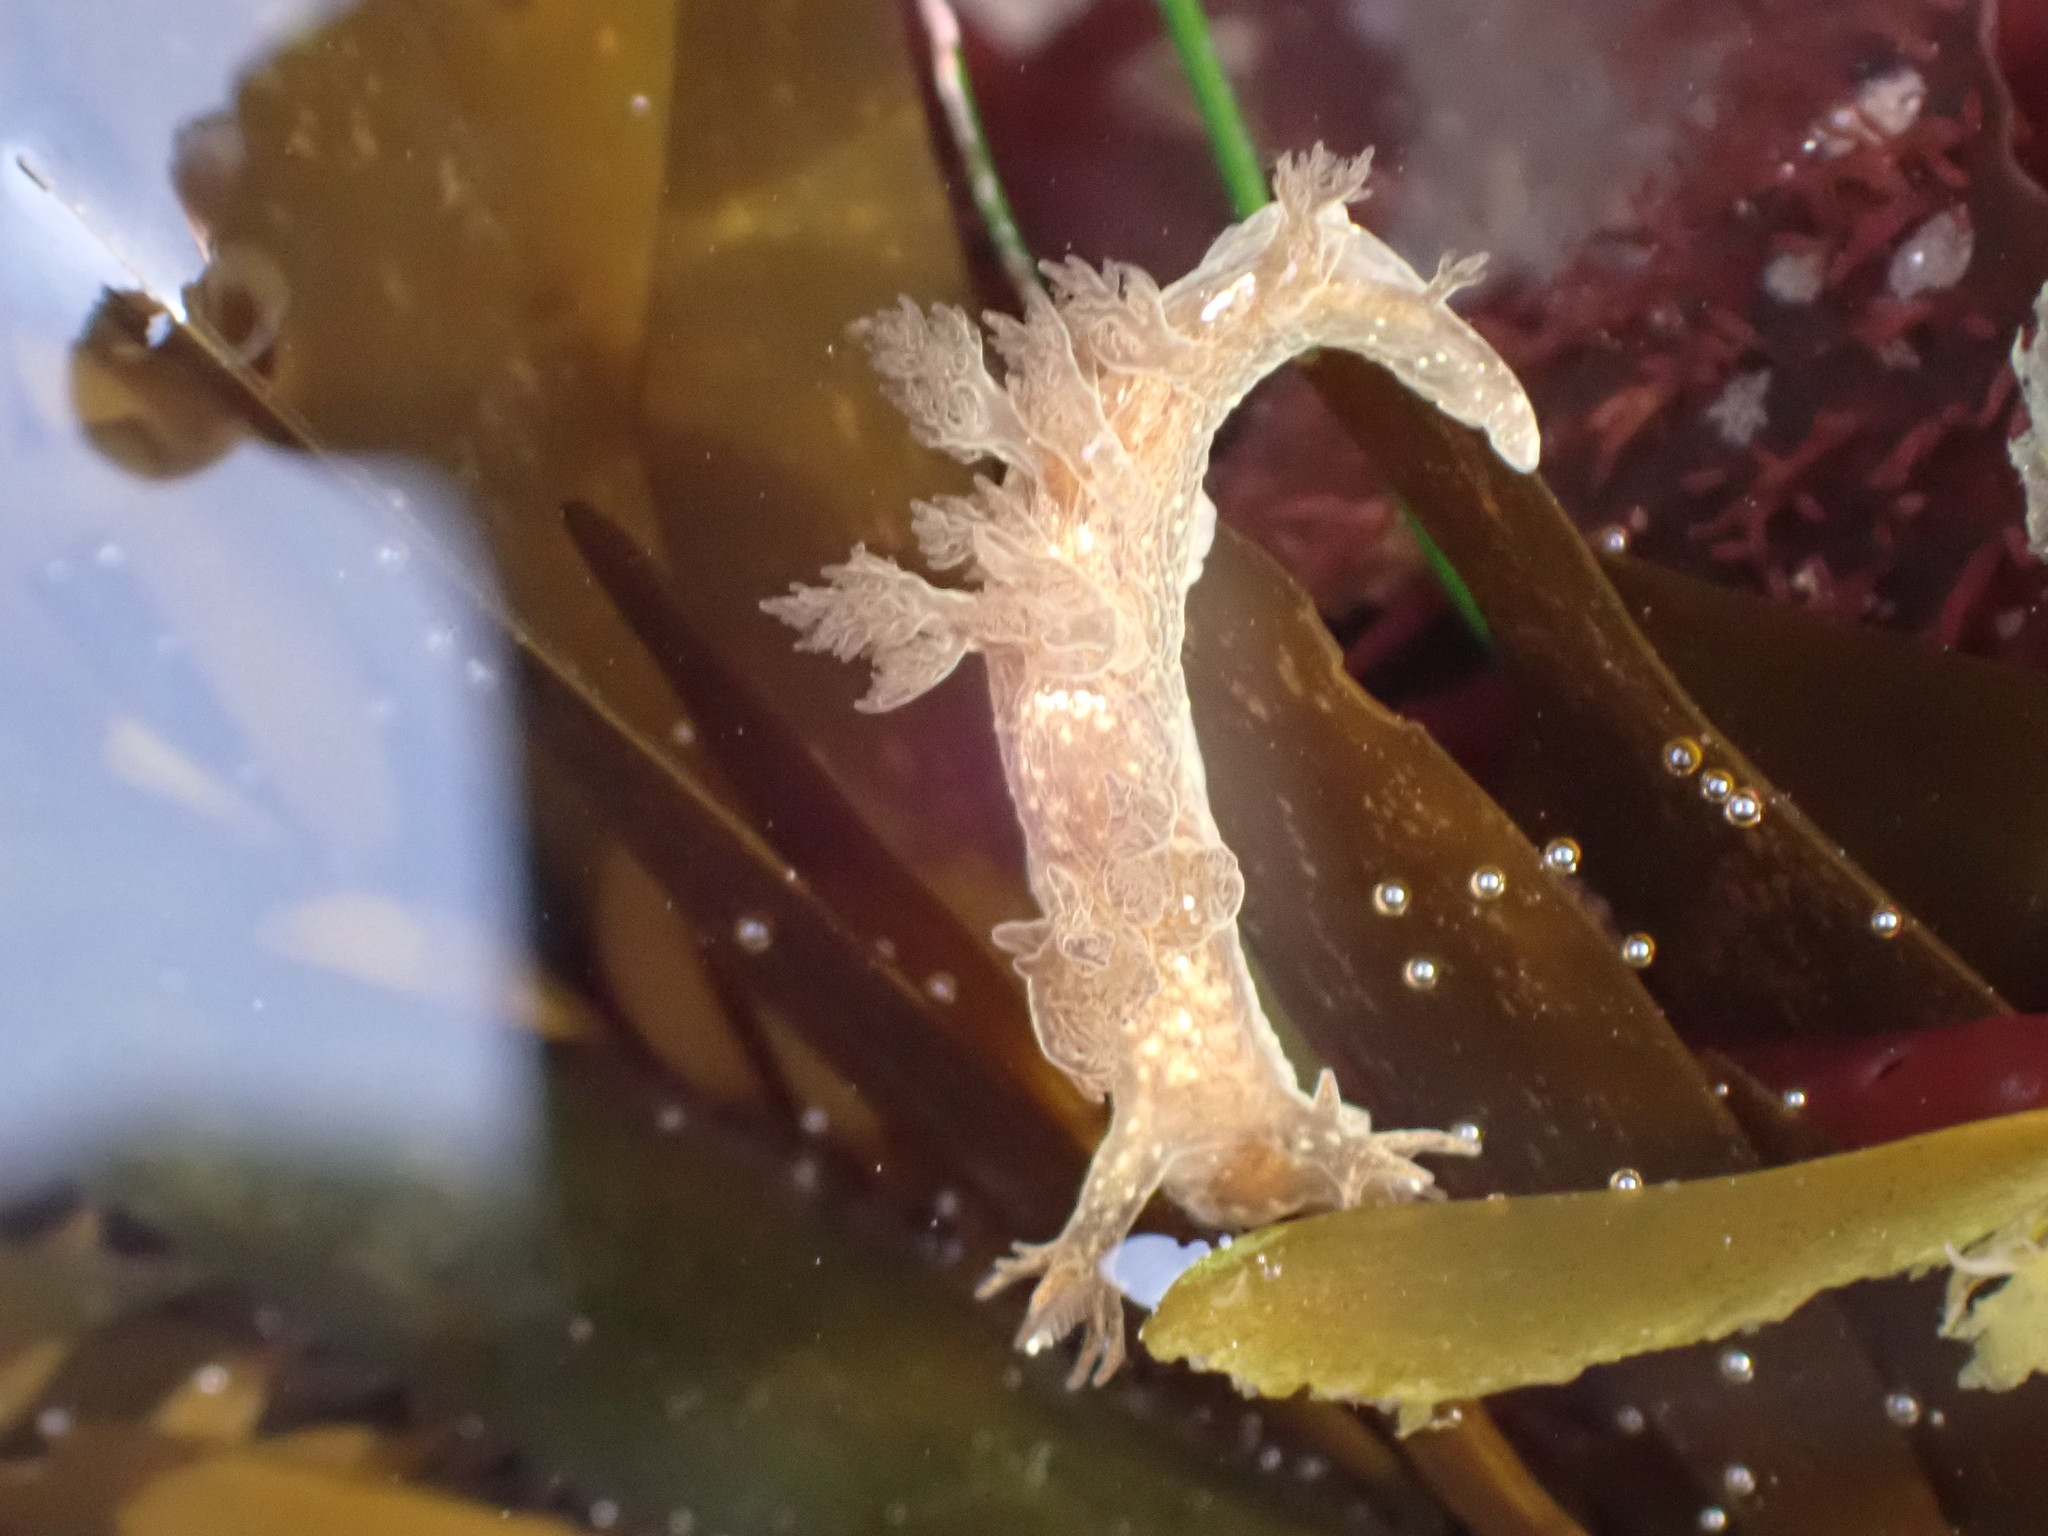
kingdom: Animalia
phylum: Mollusca
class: Gastropoda
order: Nudibranchia
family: Dendronotidae
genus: Dendronotus
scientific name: Dendronotus subramosus
